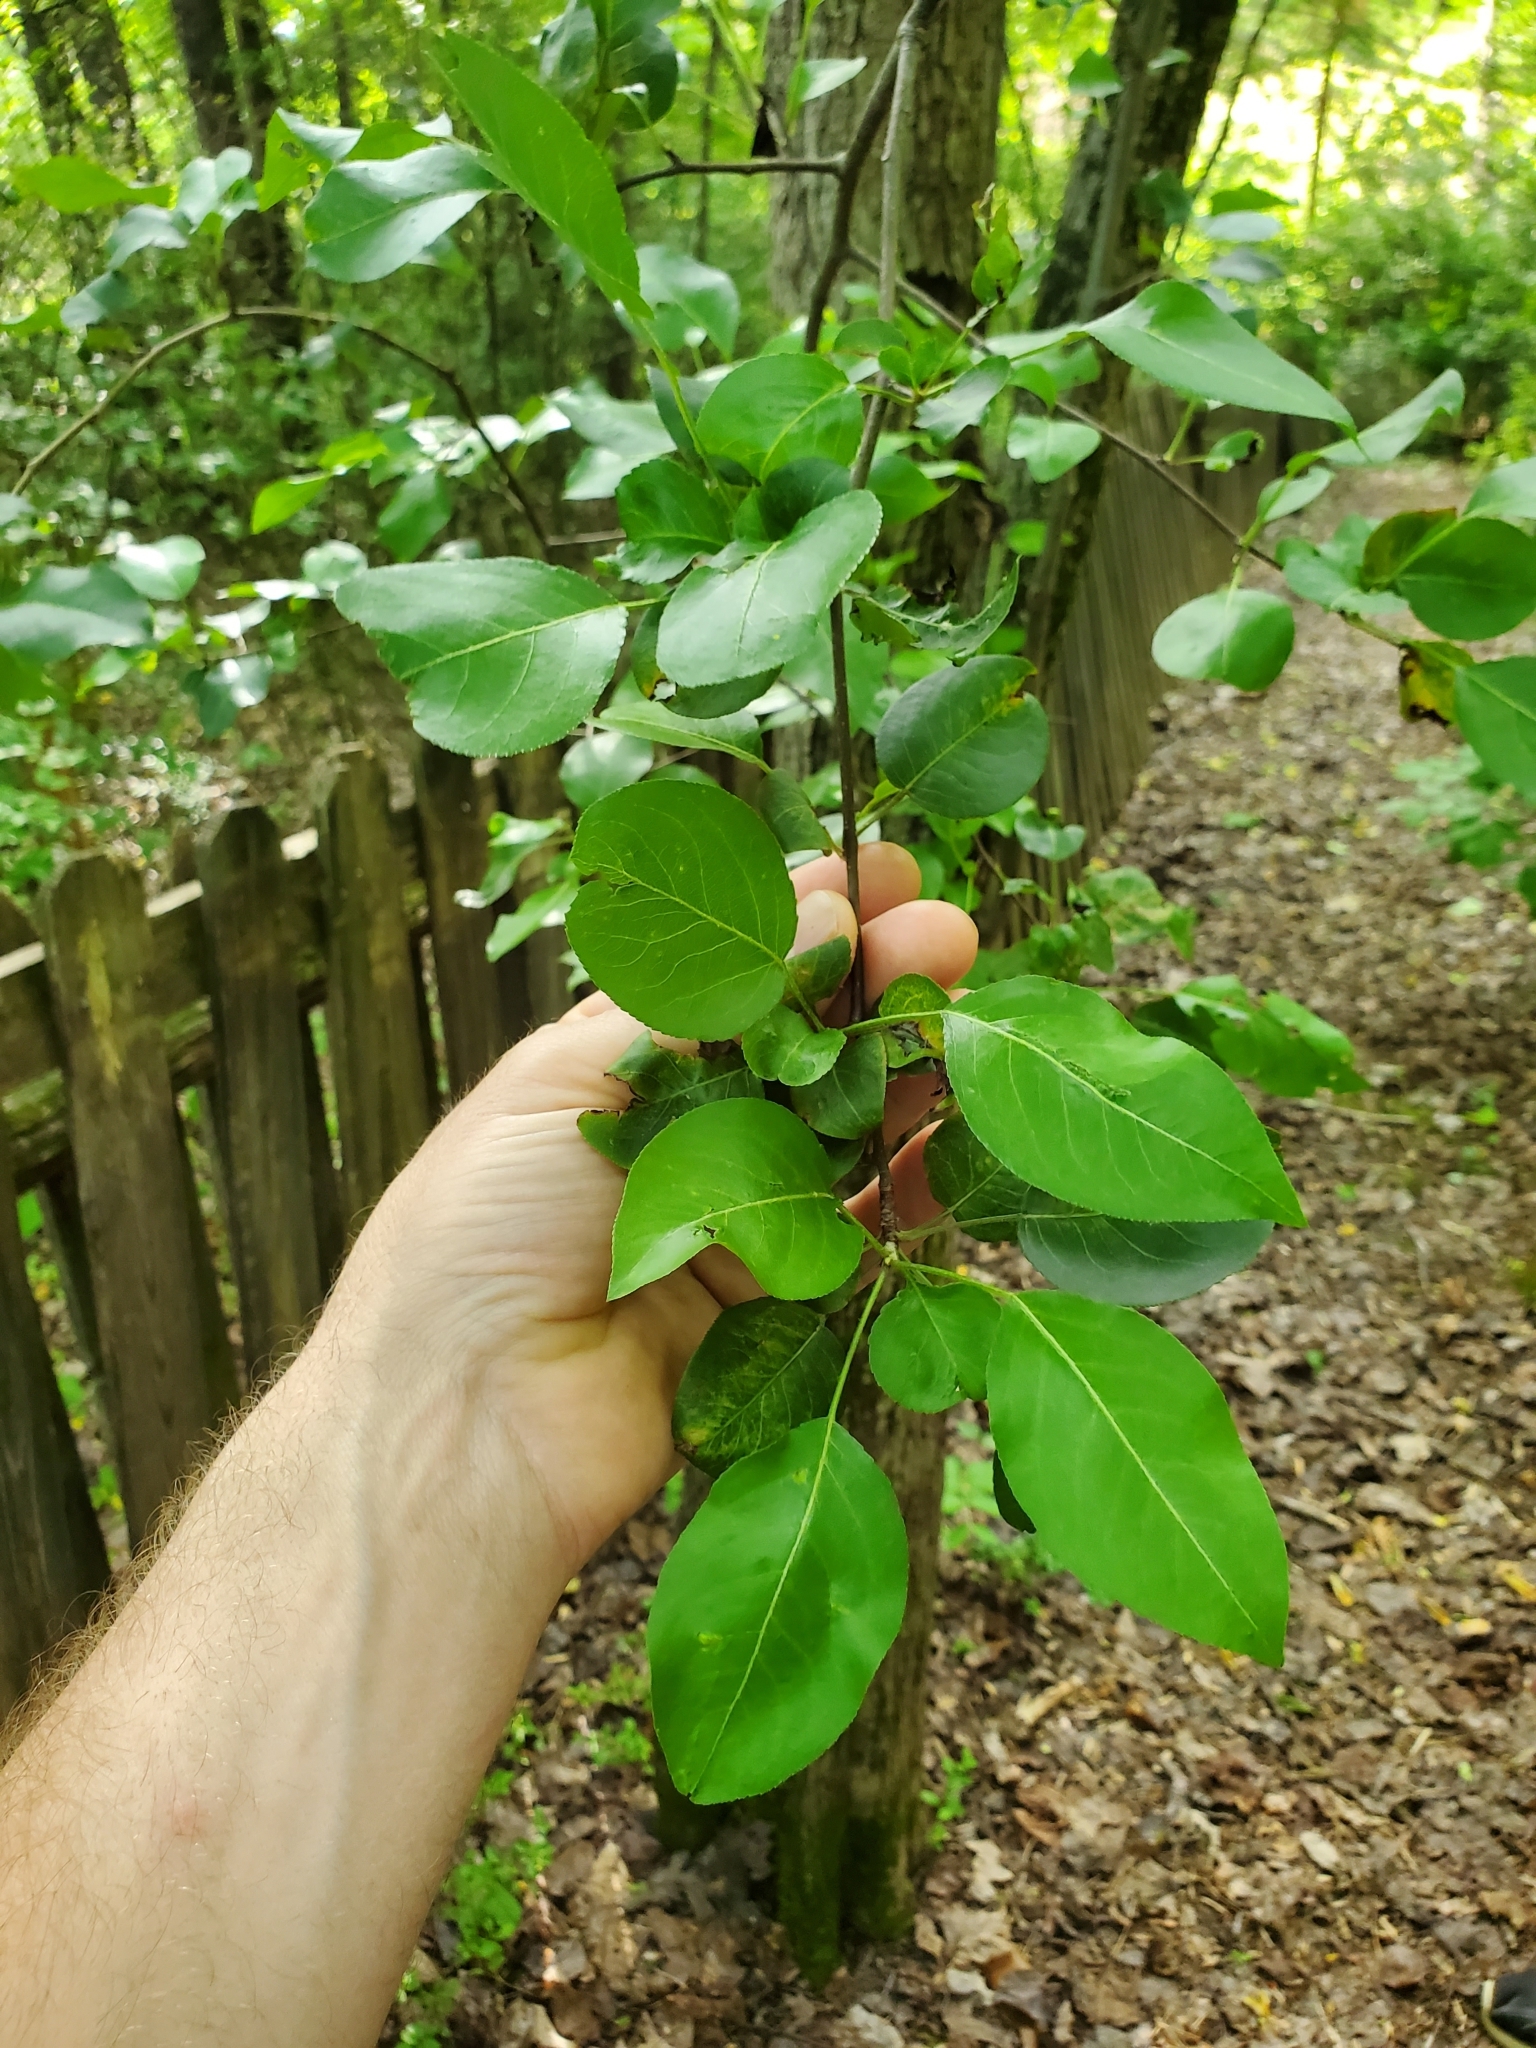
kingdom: Plantae
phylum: Tracheophyta
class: Magnoliopsida
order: Rosales
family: Rosaceae
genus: Pyrus
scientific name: Pyrus calleryana
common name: Callery pear
